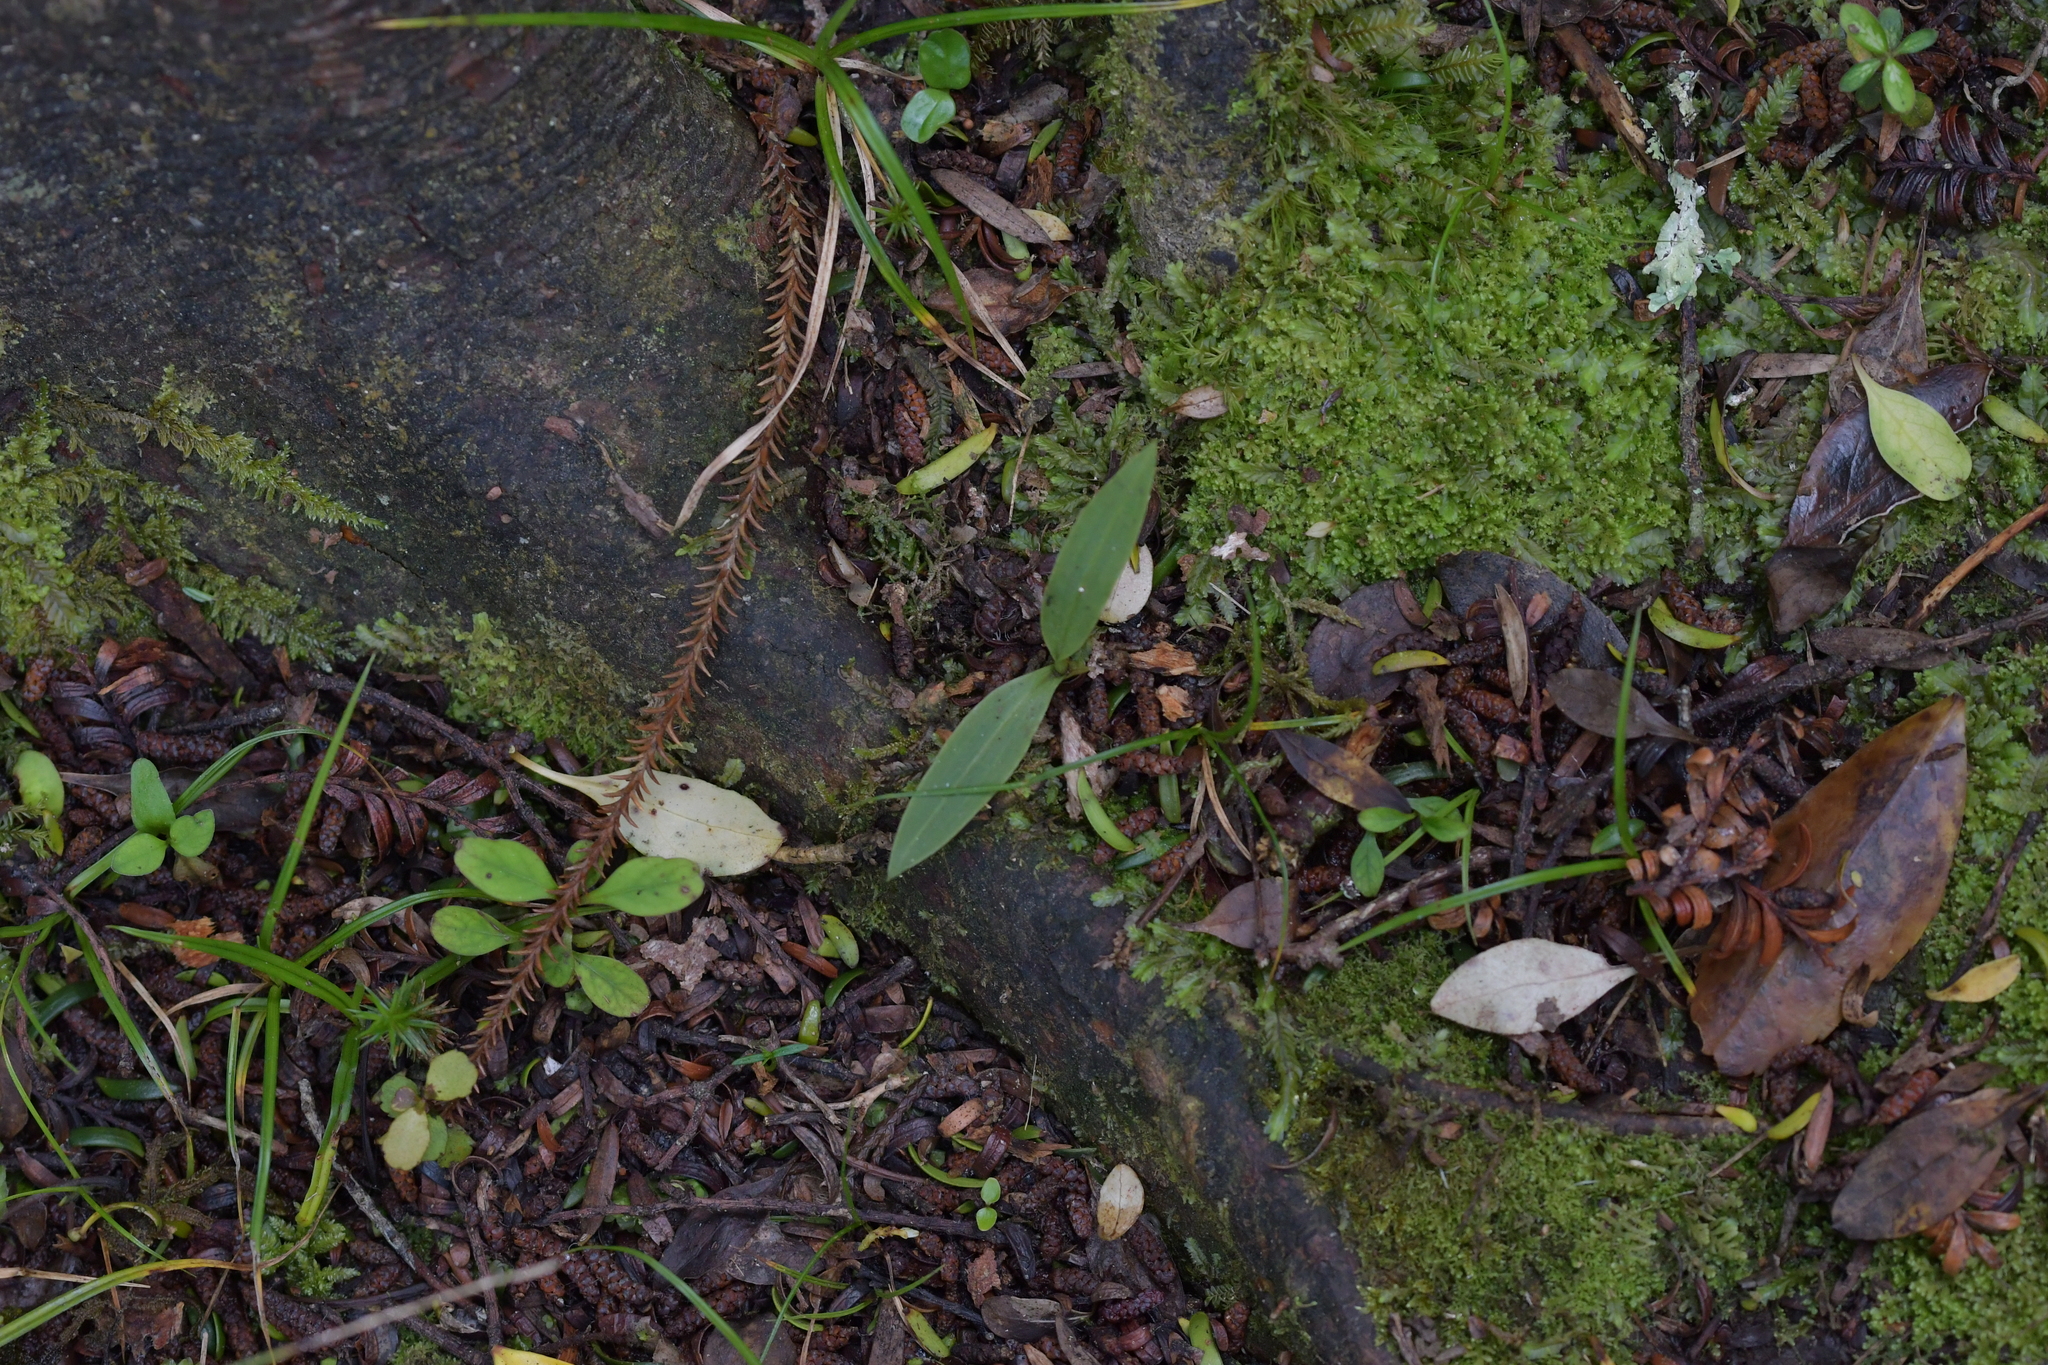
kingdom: Plantae
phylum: Tracheophyta
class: Liliopsida
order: Asparagales
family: Orchidaceae
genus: Chiloglottis
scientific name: Chiloglottis cornuta
